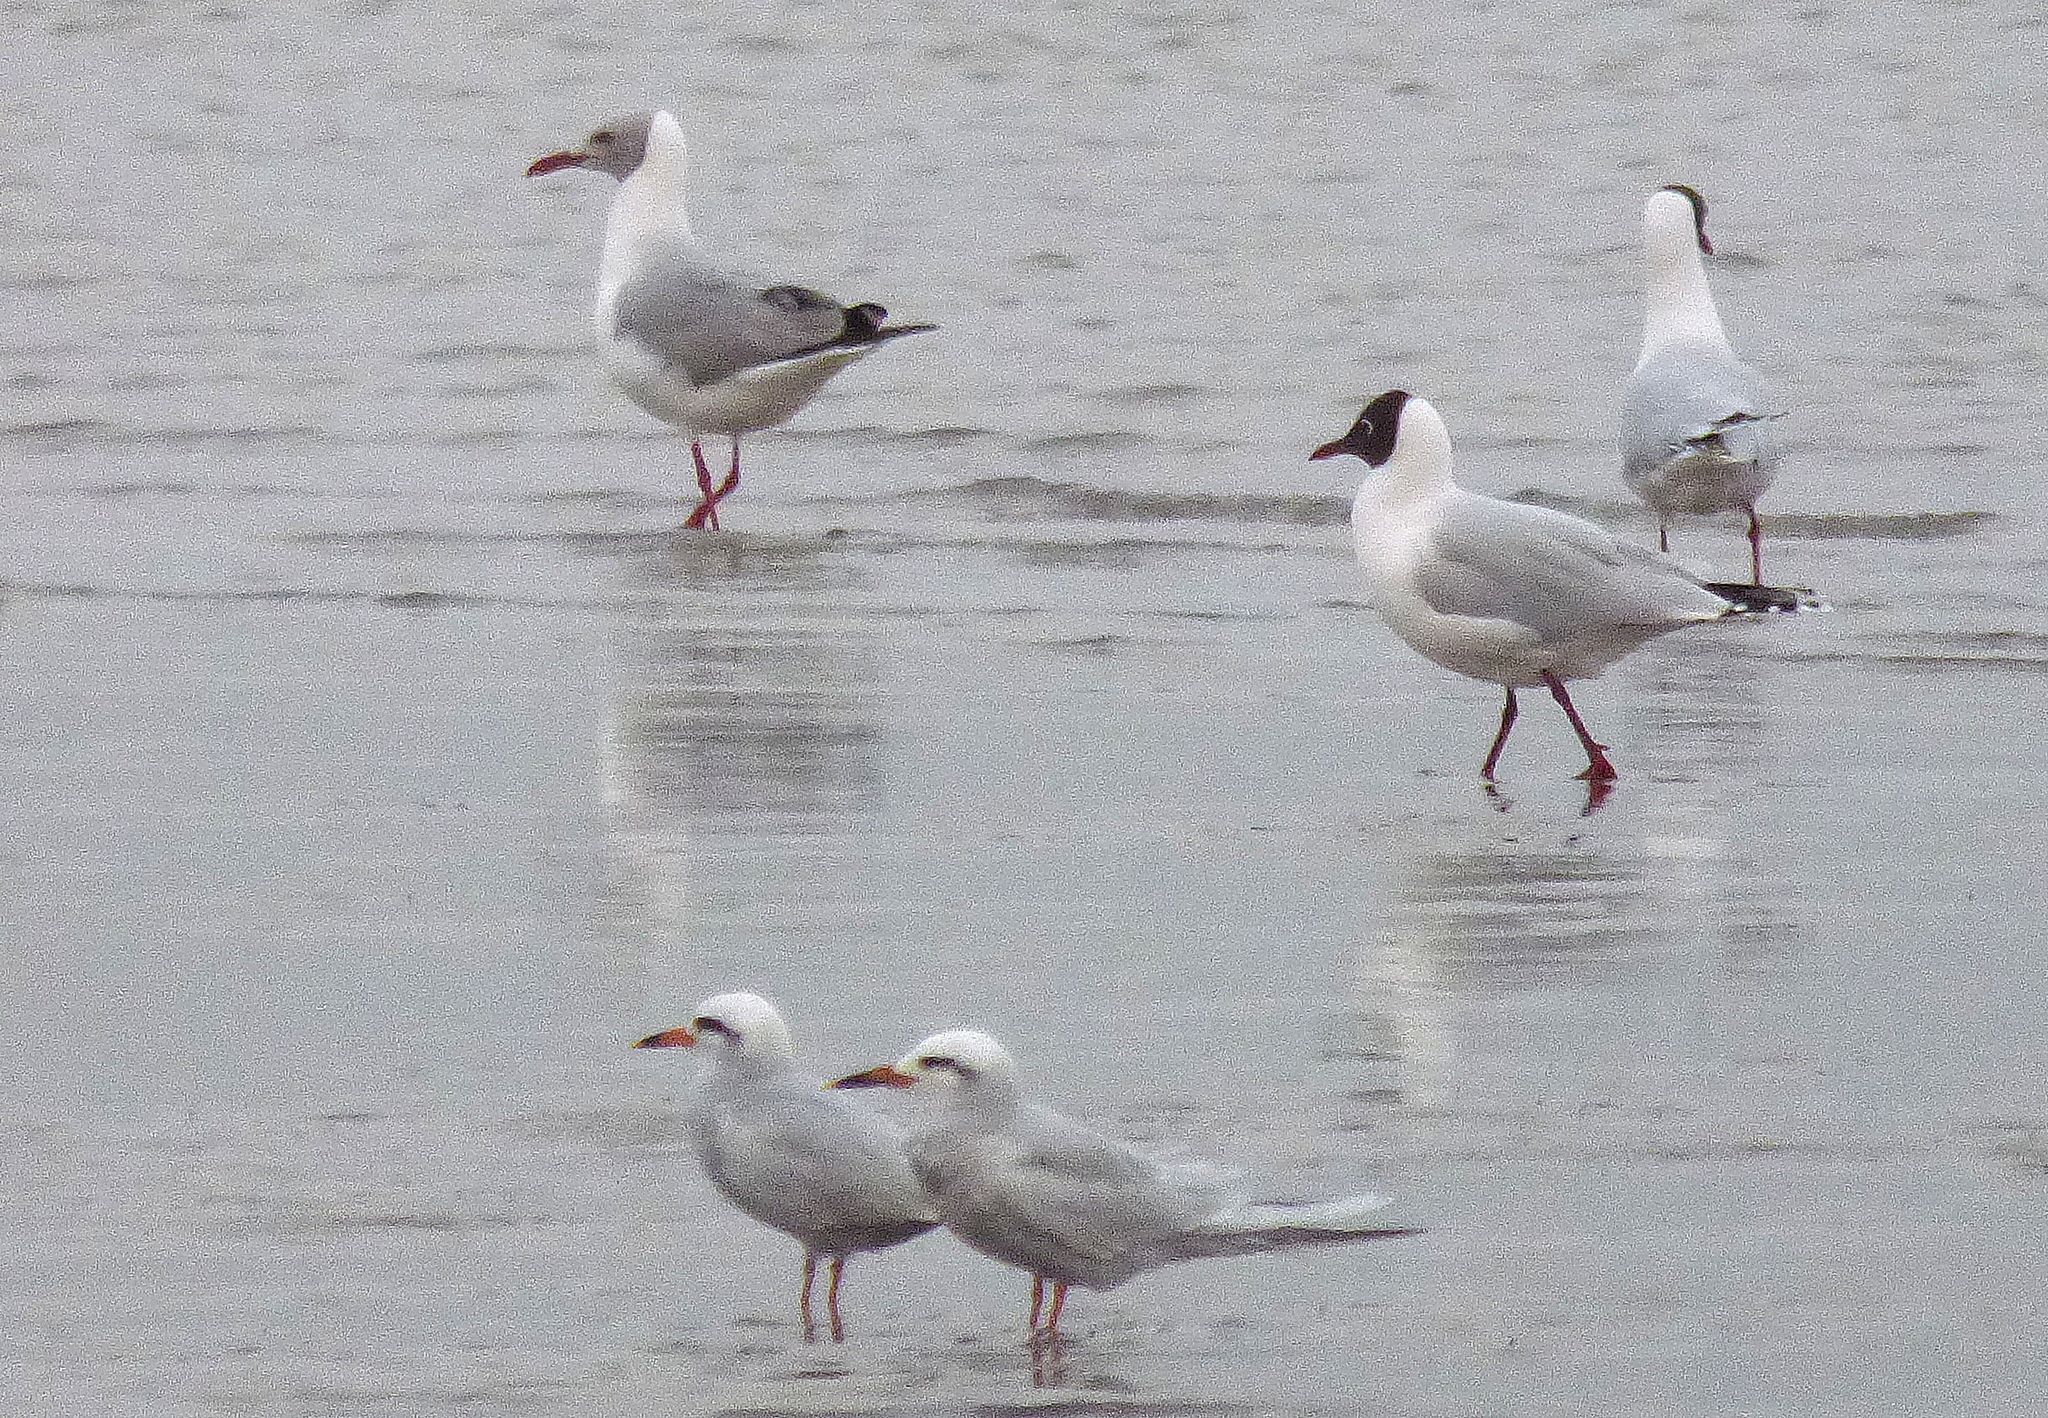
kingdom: Animalia
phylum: Chordata
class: Aves
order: Charadriiformes
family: Laridae
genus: Chroicocephalus
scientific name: Chroicocephalus cirrocephalus
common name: Grey-headed gull
